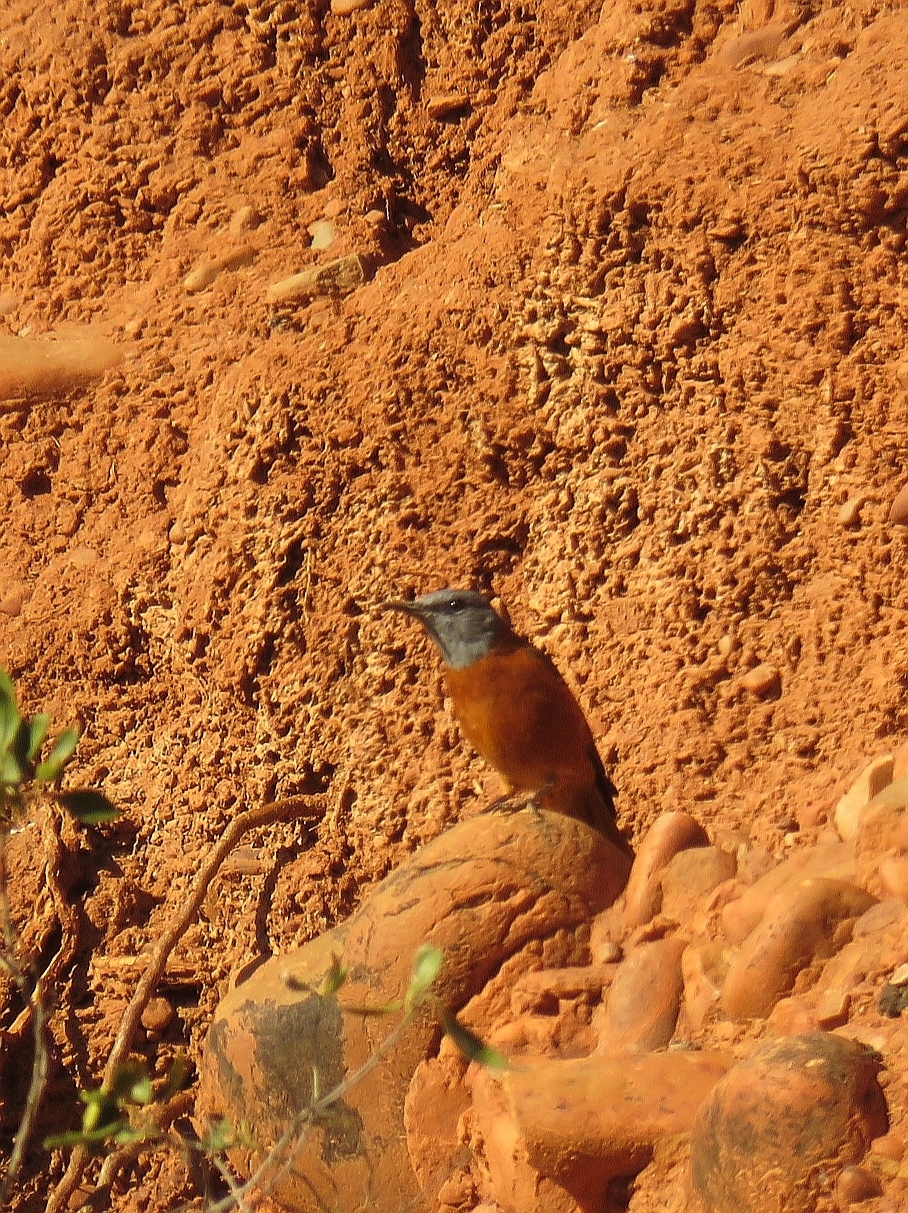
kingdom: Animalia
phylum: Chordata
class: Aves
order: Passeriformes
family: Muscicapidae
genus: Monticola
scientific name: Monticola rupestris
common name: Cape rock thrush
